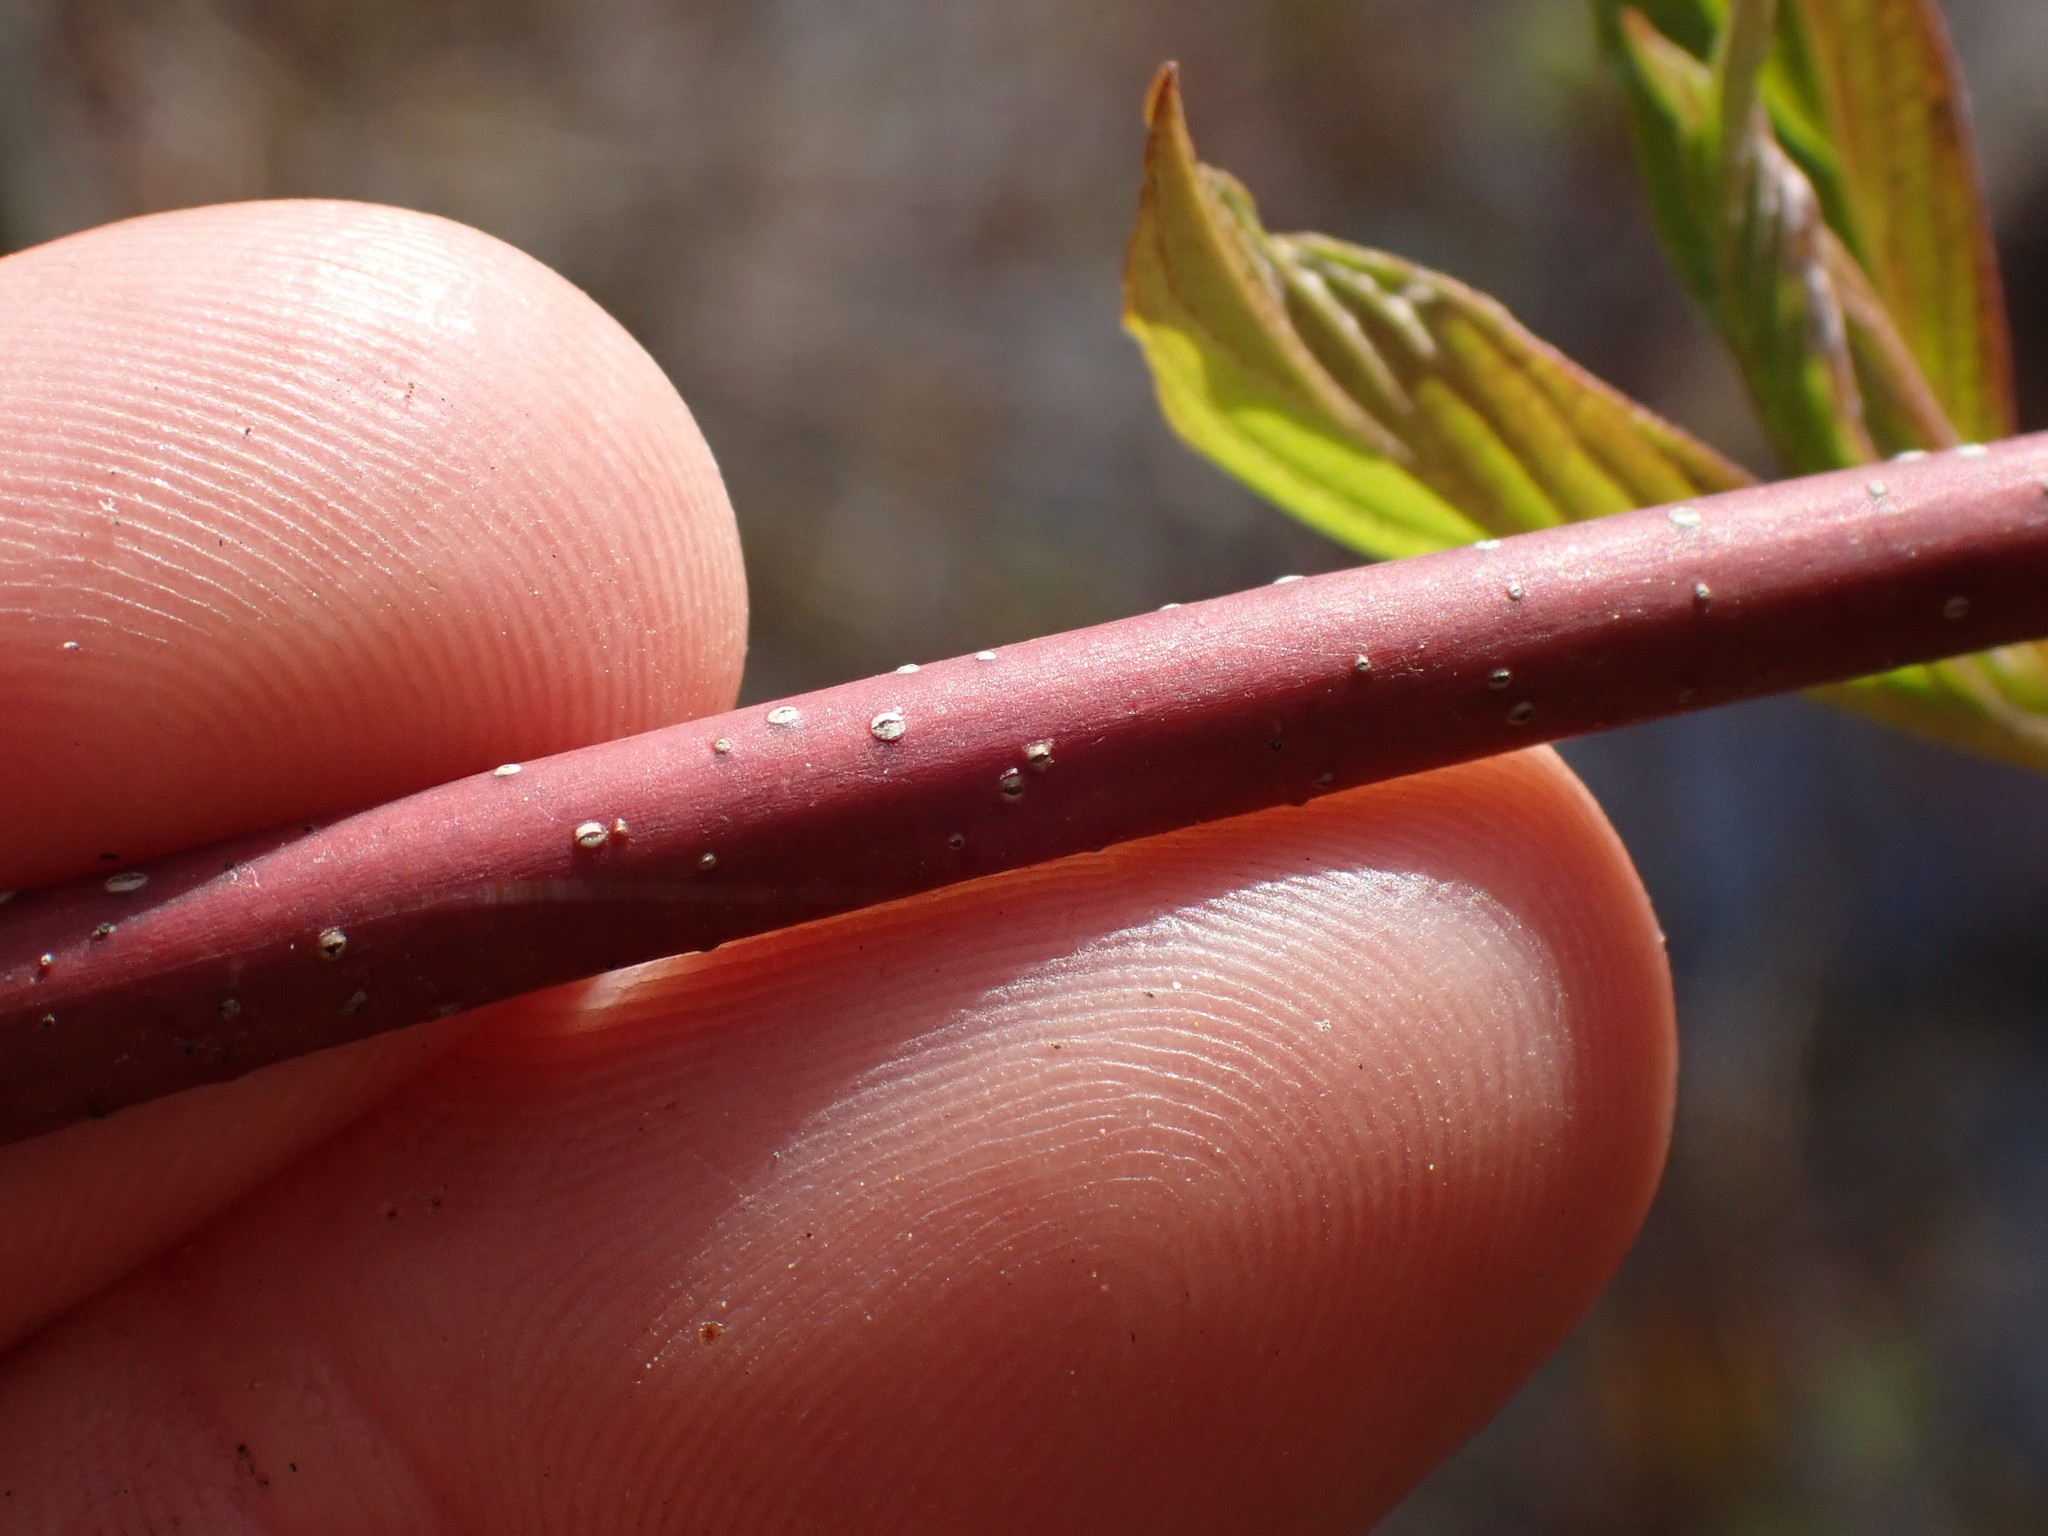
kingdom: Plantae
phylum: Tracheophyta
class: Magnoliopsida
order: Cornales
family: Cornaceae
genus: Cornus
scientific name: Cornus sericea
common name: Red-osier dogwood
